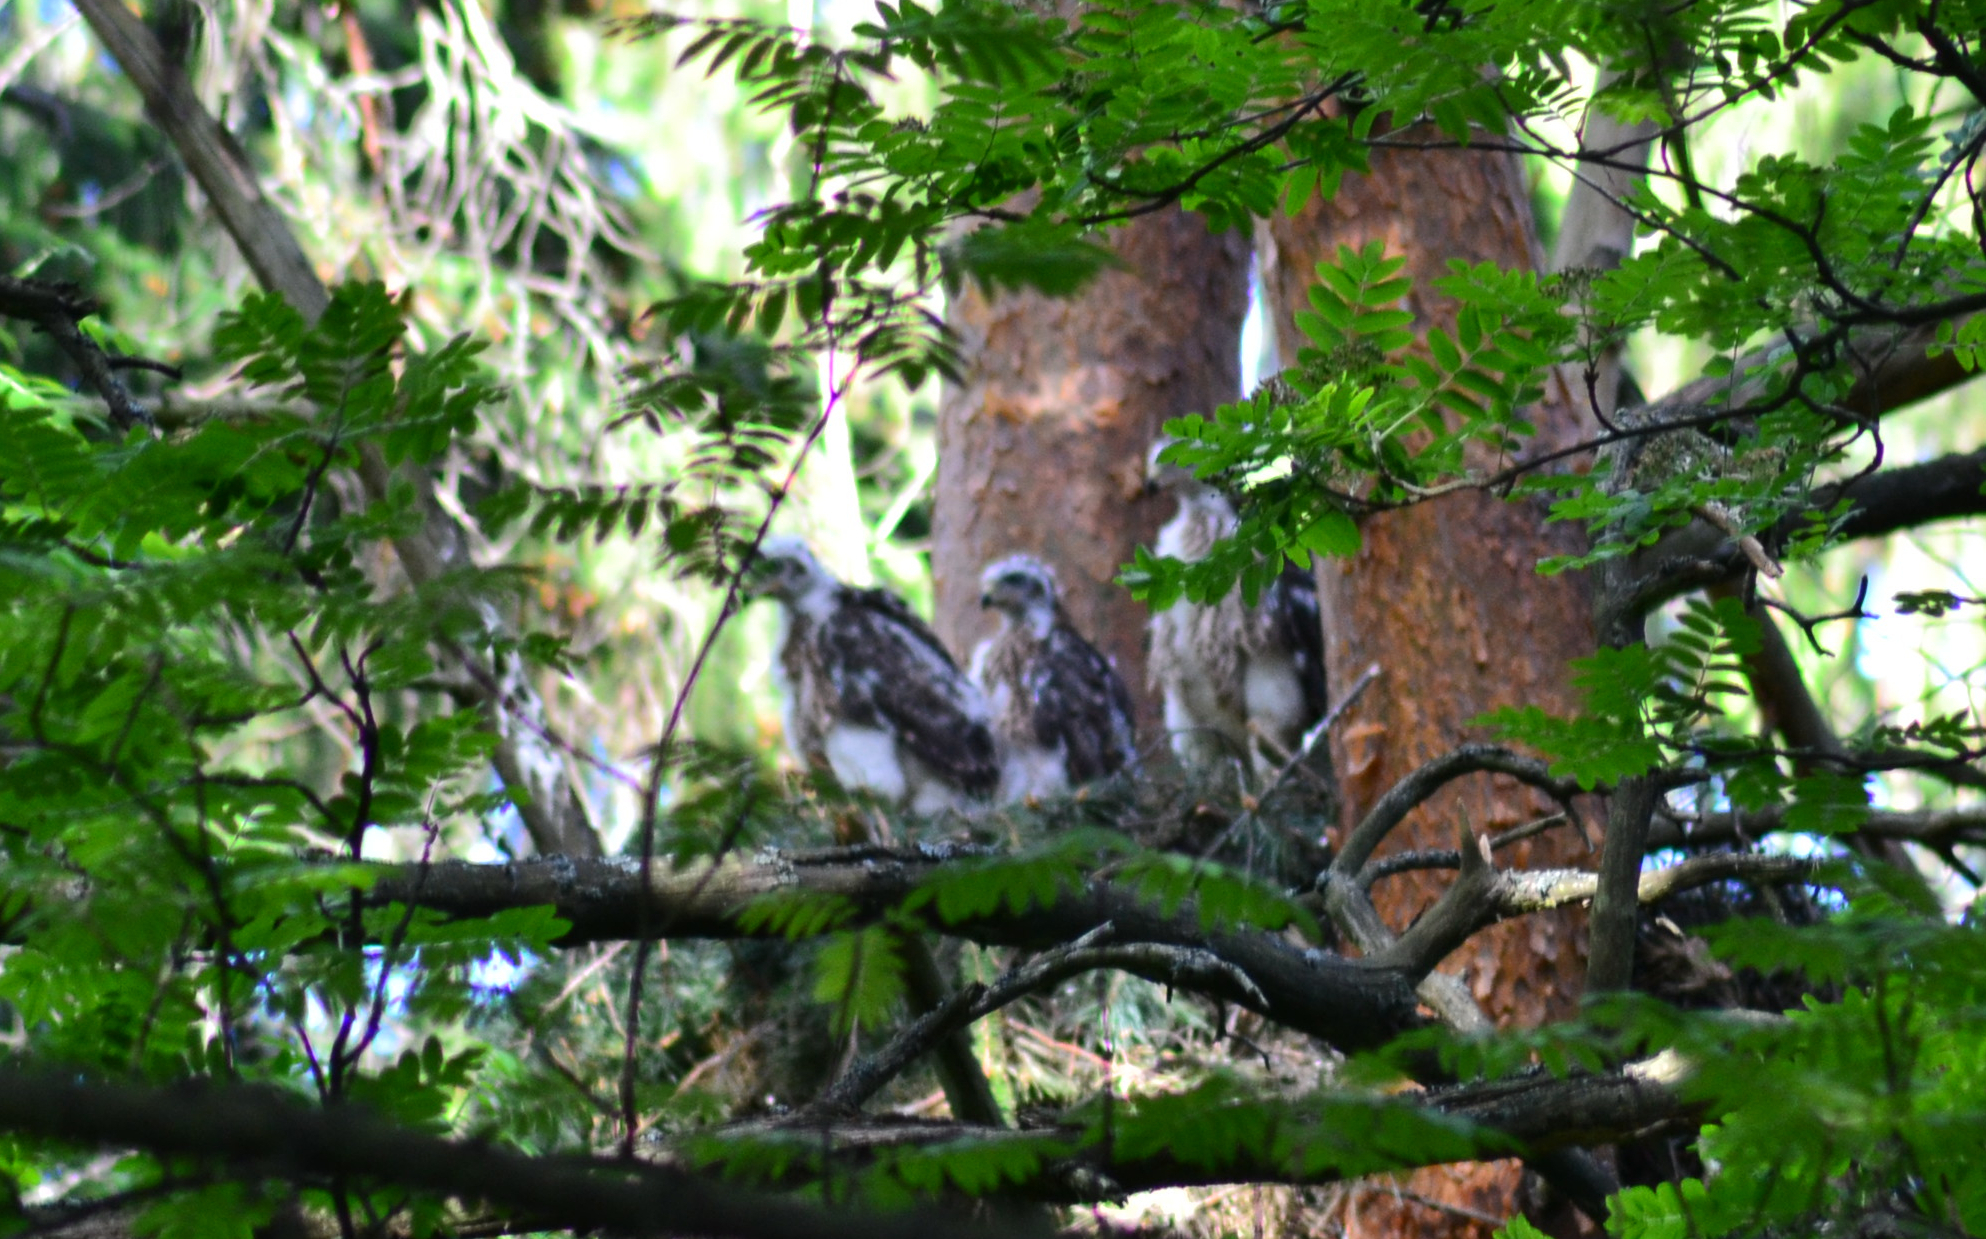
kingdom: Animalia
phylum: Chordata
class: Aves
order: Accipitriformes
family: Accipitridae
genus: Accipiter
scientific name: Accipiter gentilis
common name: Northern goshawk
